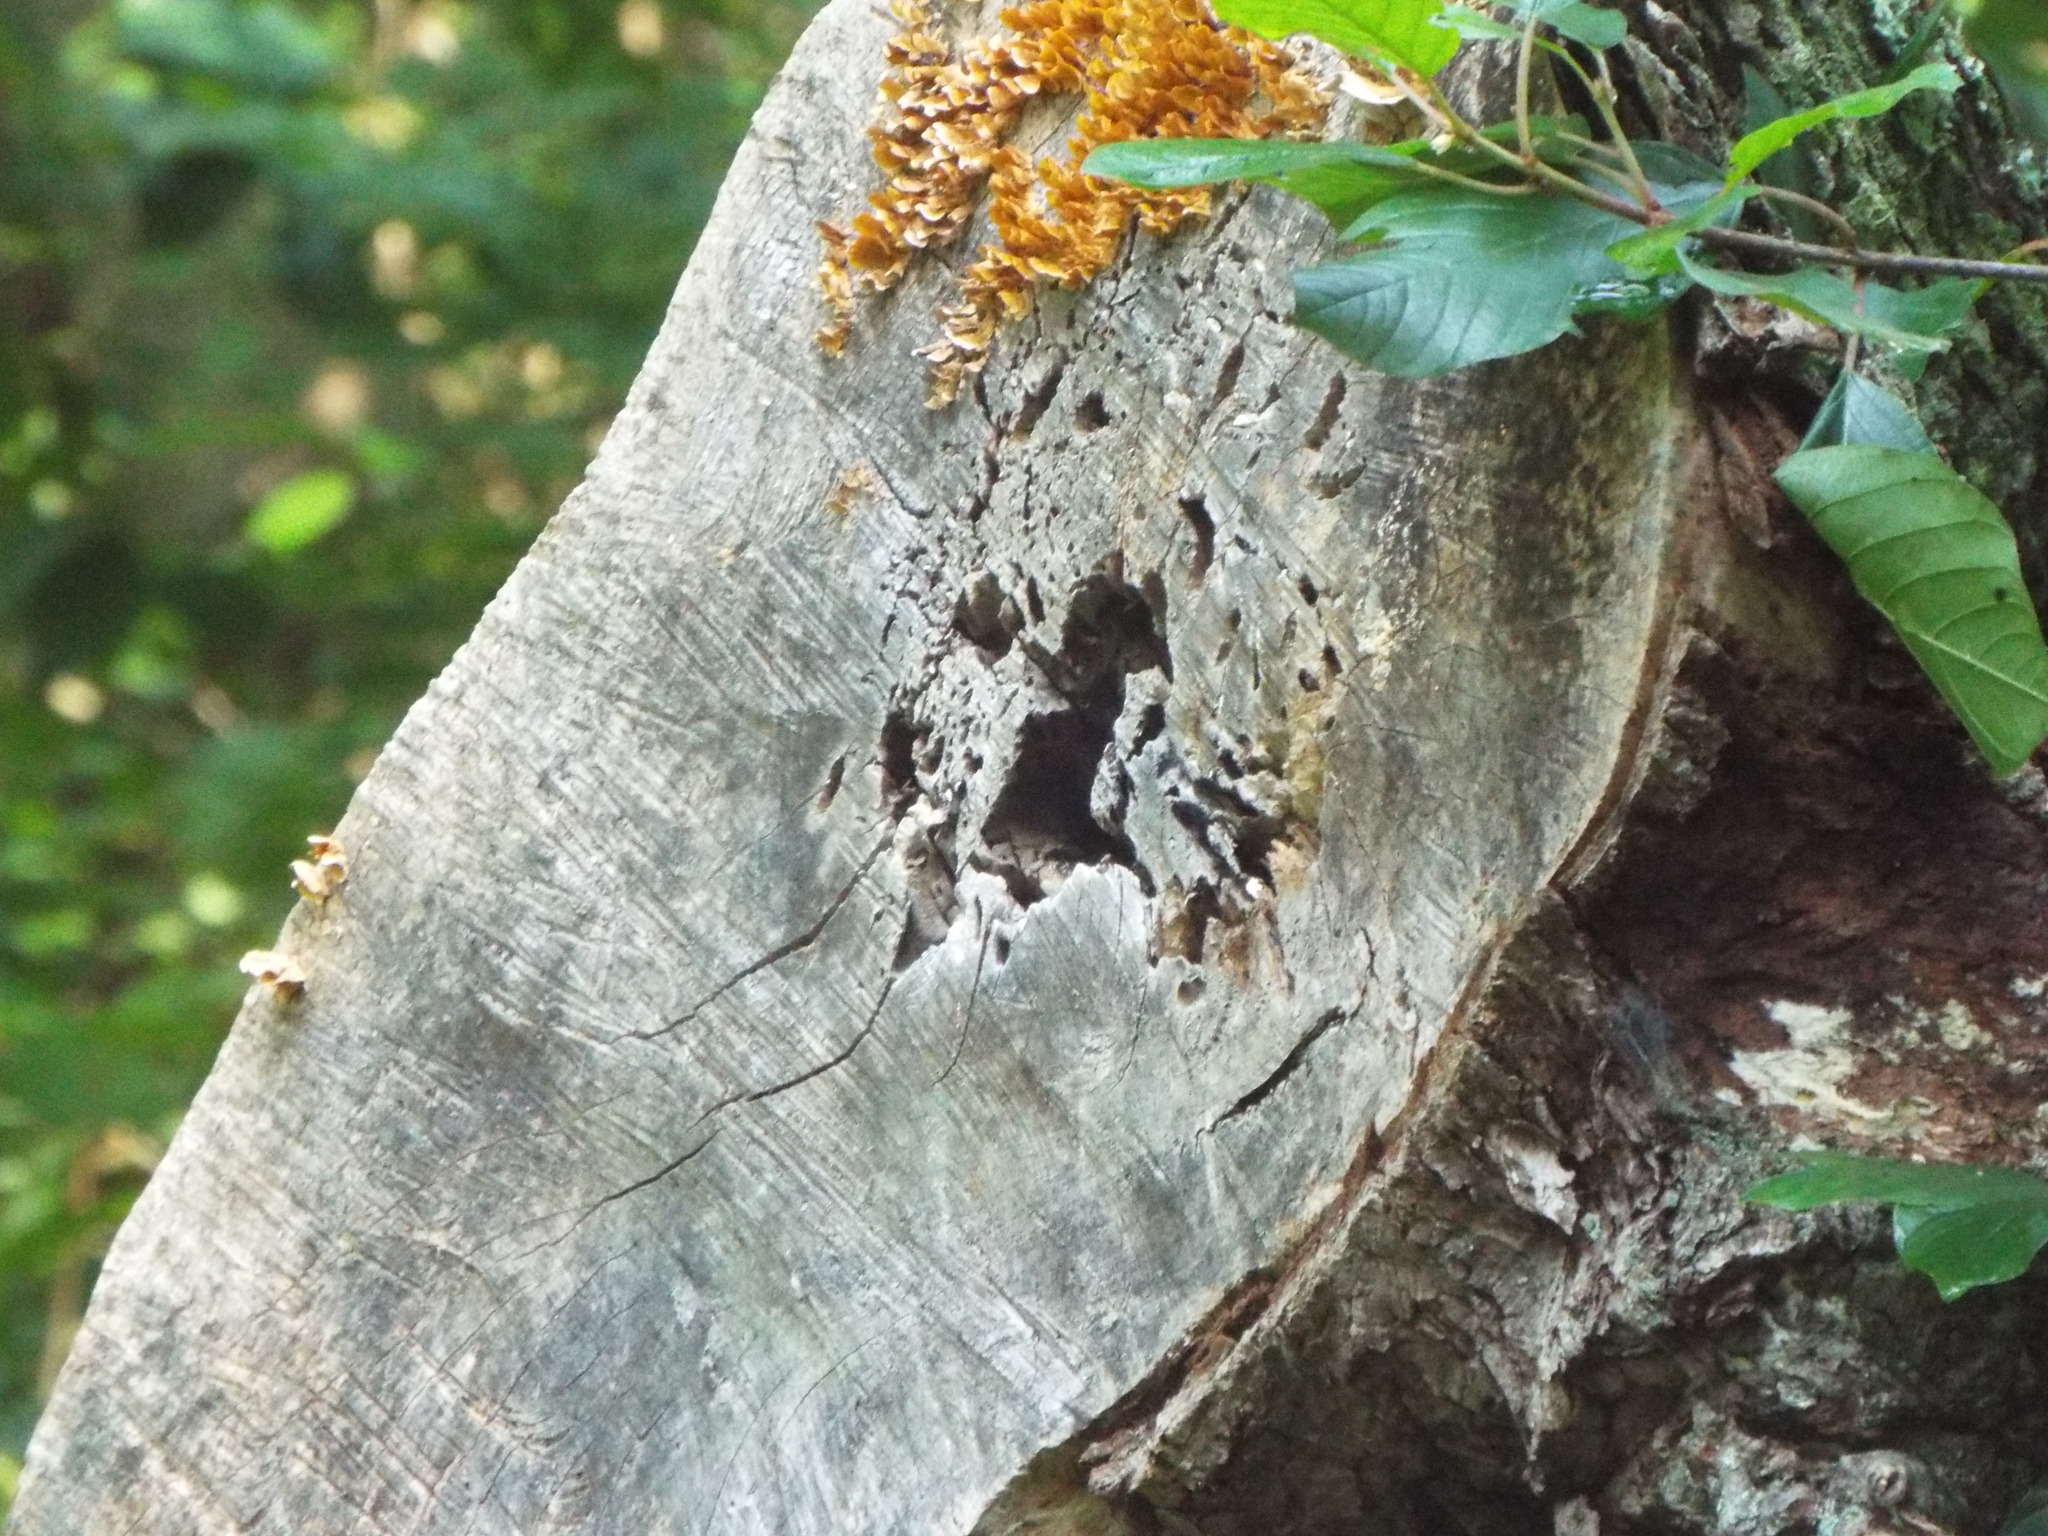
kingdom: Animalia
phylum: Chordata
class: Squamata
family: Colubridae
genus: Thamnophis
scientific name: Thamnophis sirtalis
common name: Common garter snake
